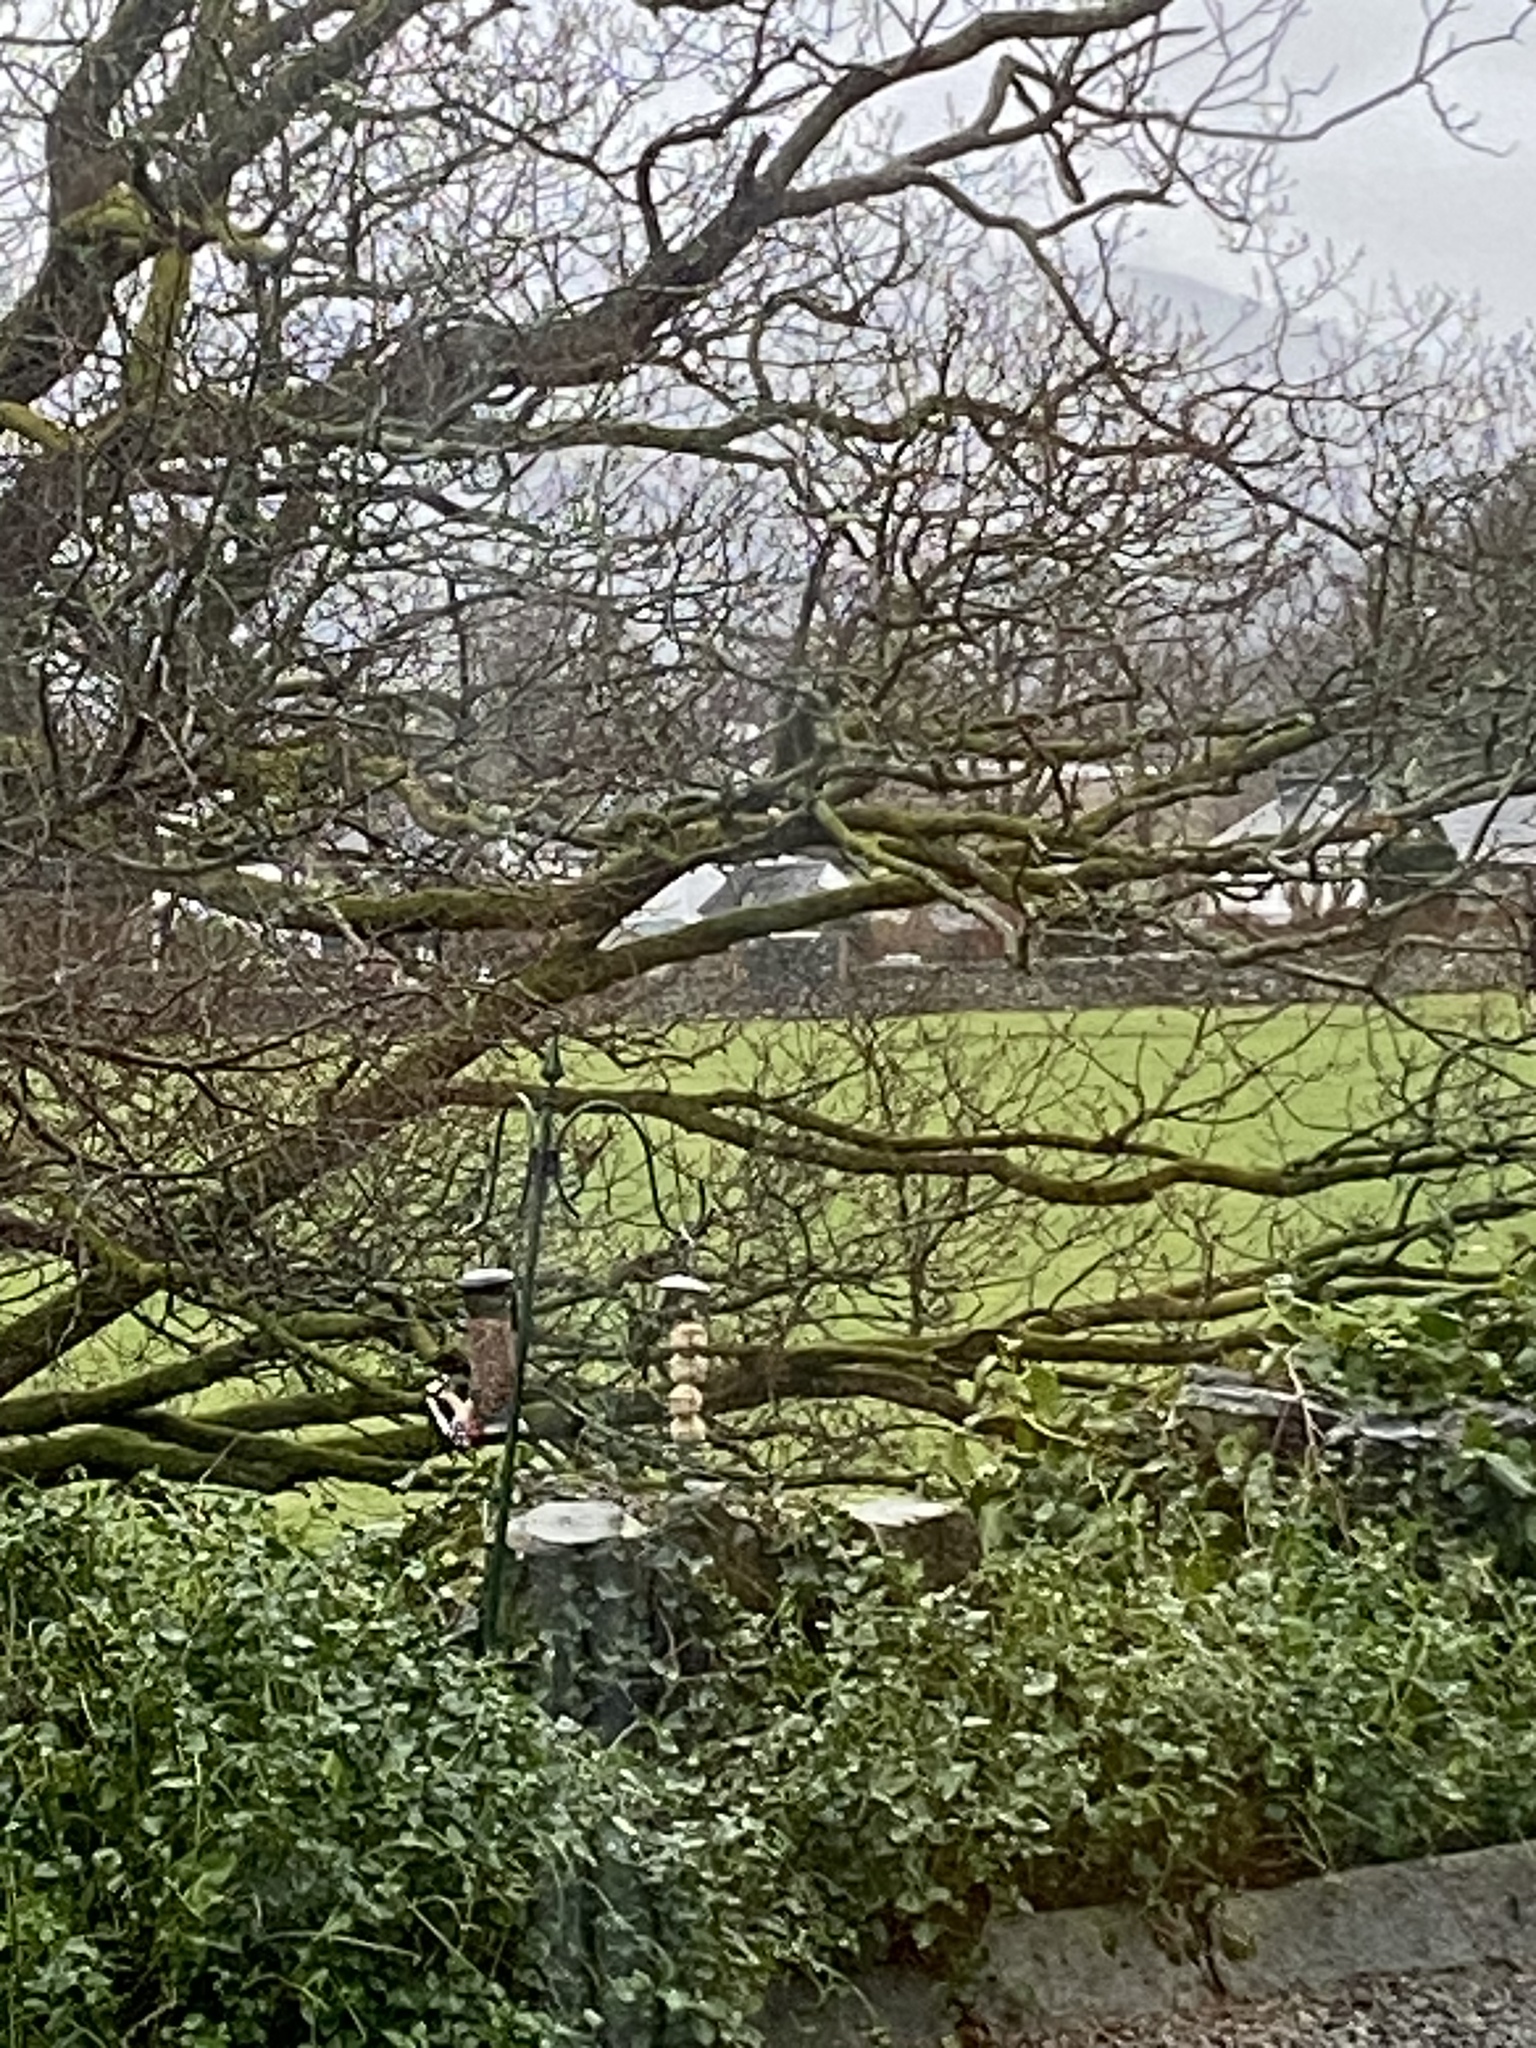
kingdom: Animalia
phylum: Chordata
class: Aves
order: Piciformes
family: Picidae
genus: Dendrocopos
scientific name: Dendrocopos major
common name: Great spotted woodpecker
